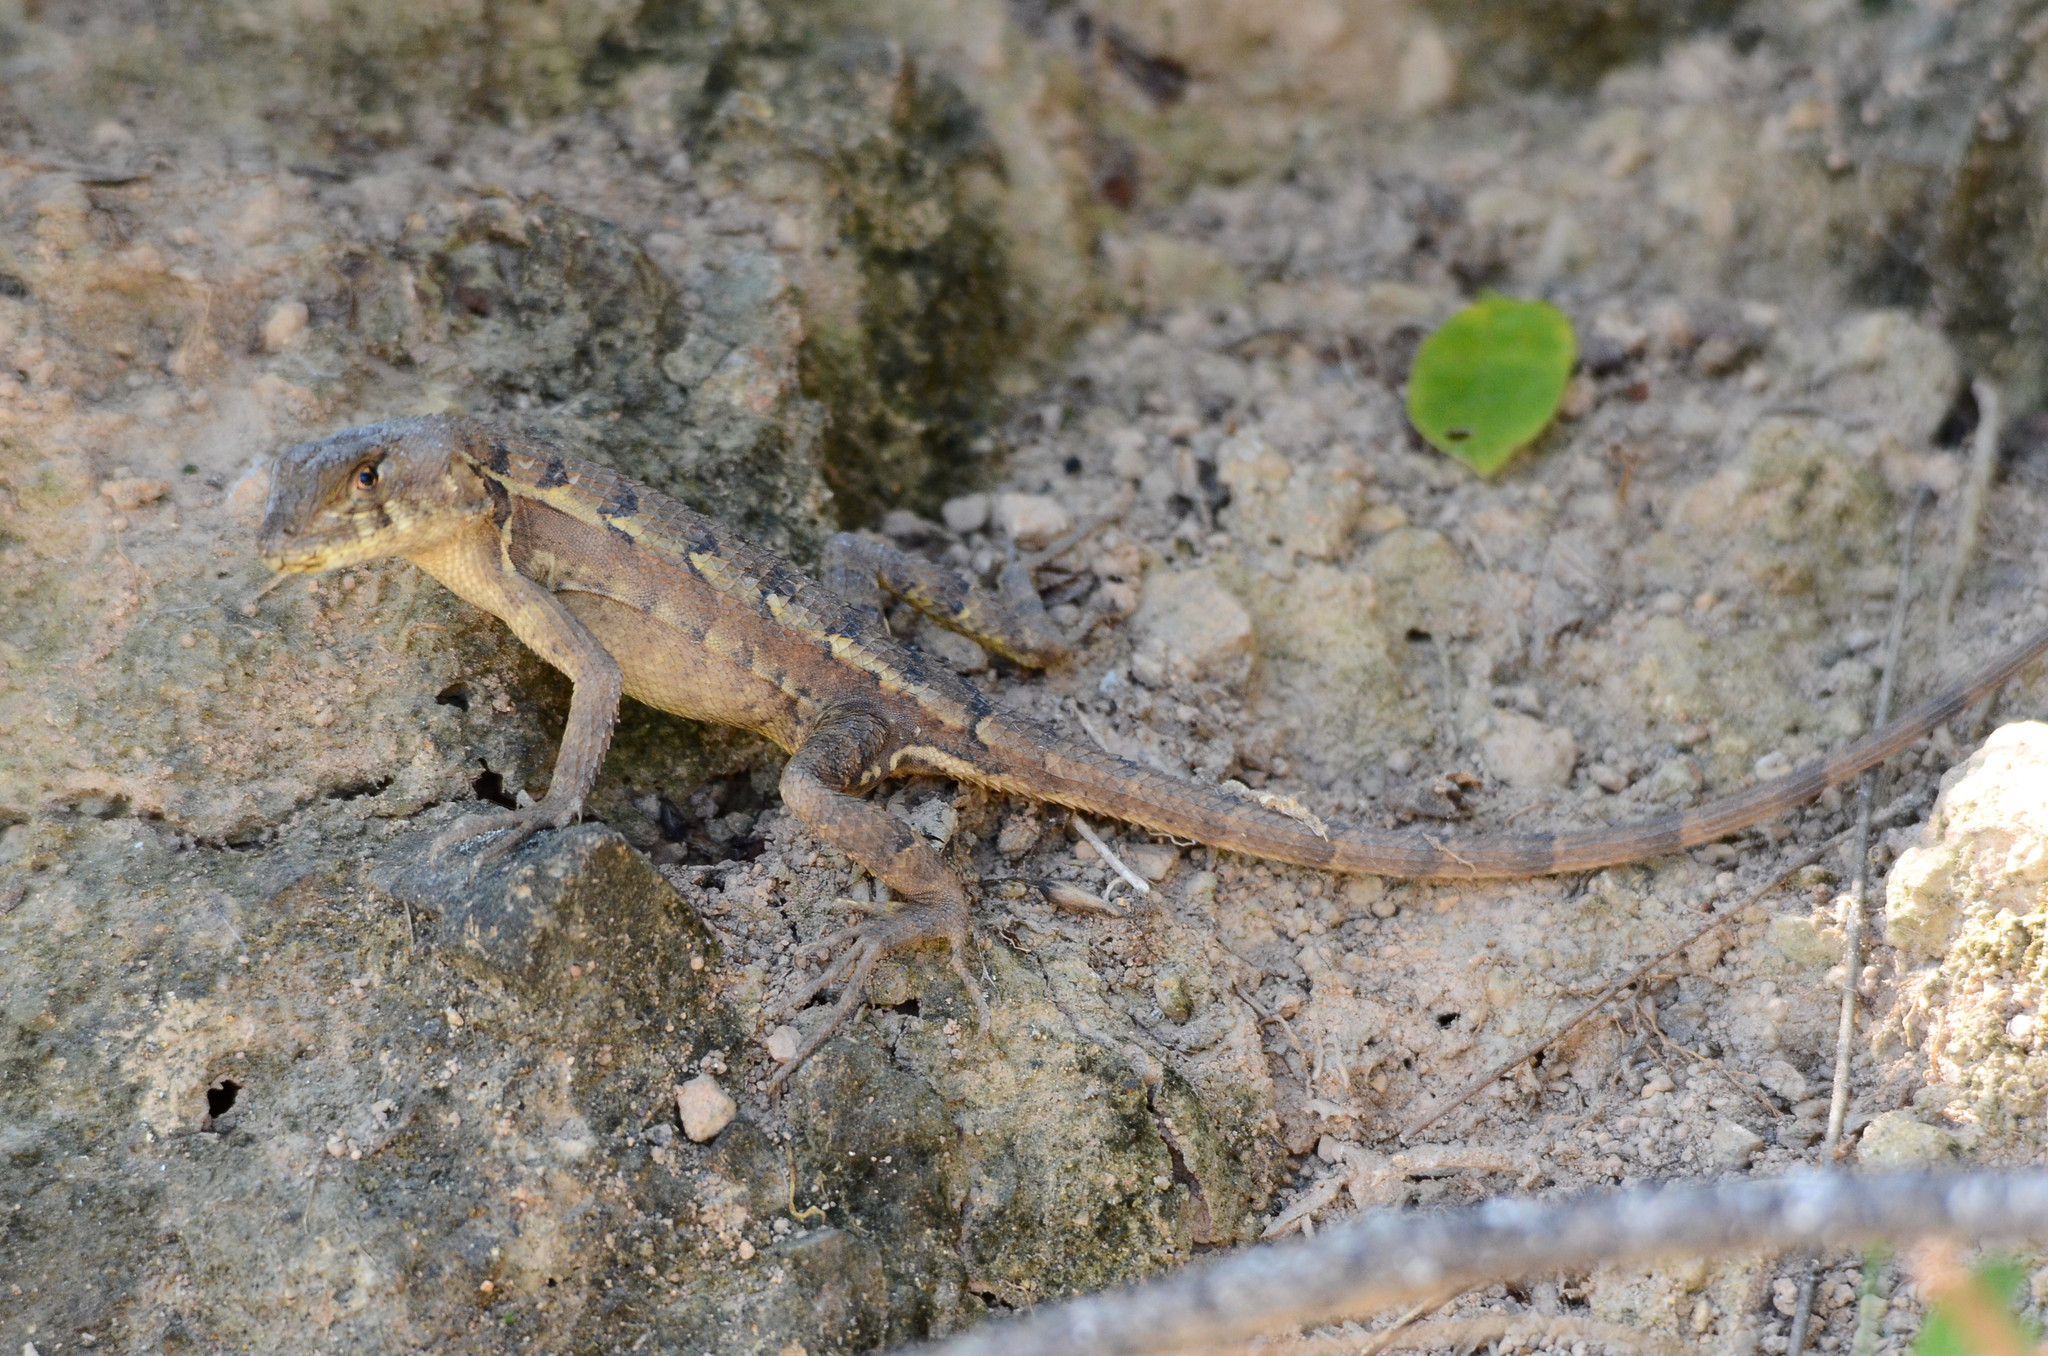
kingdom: Animalia
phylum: Chordata
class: Squamata
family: Phrynosomatidae
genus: Sceloporus
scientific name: Sceloporus utiformis
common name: Antesator
